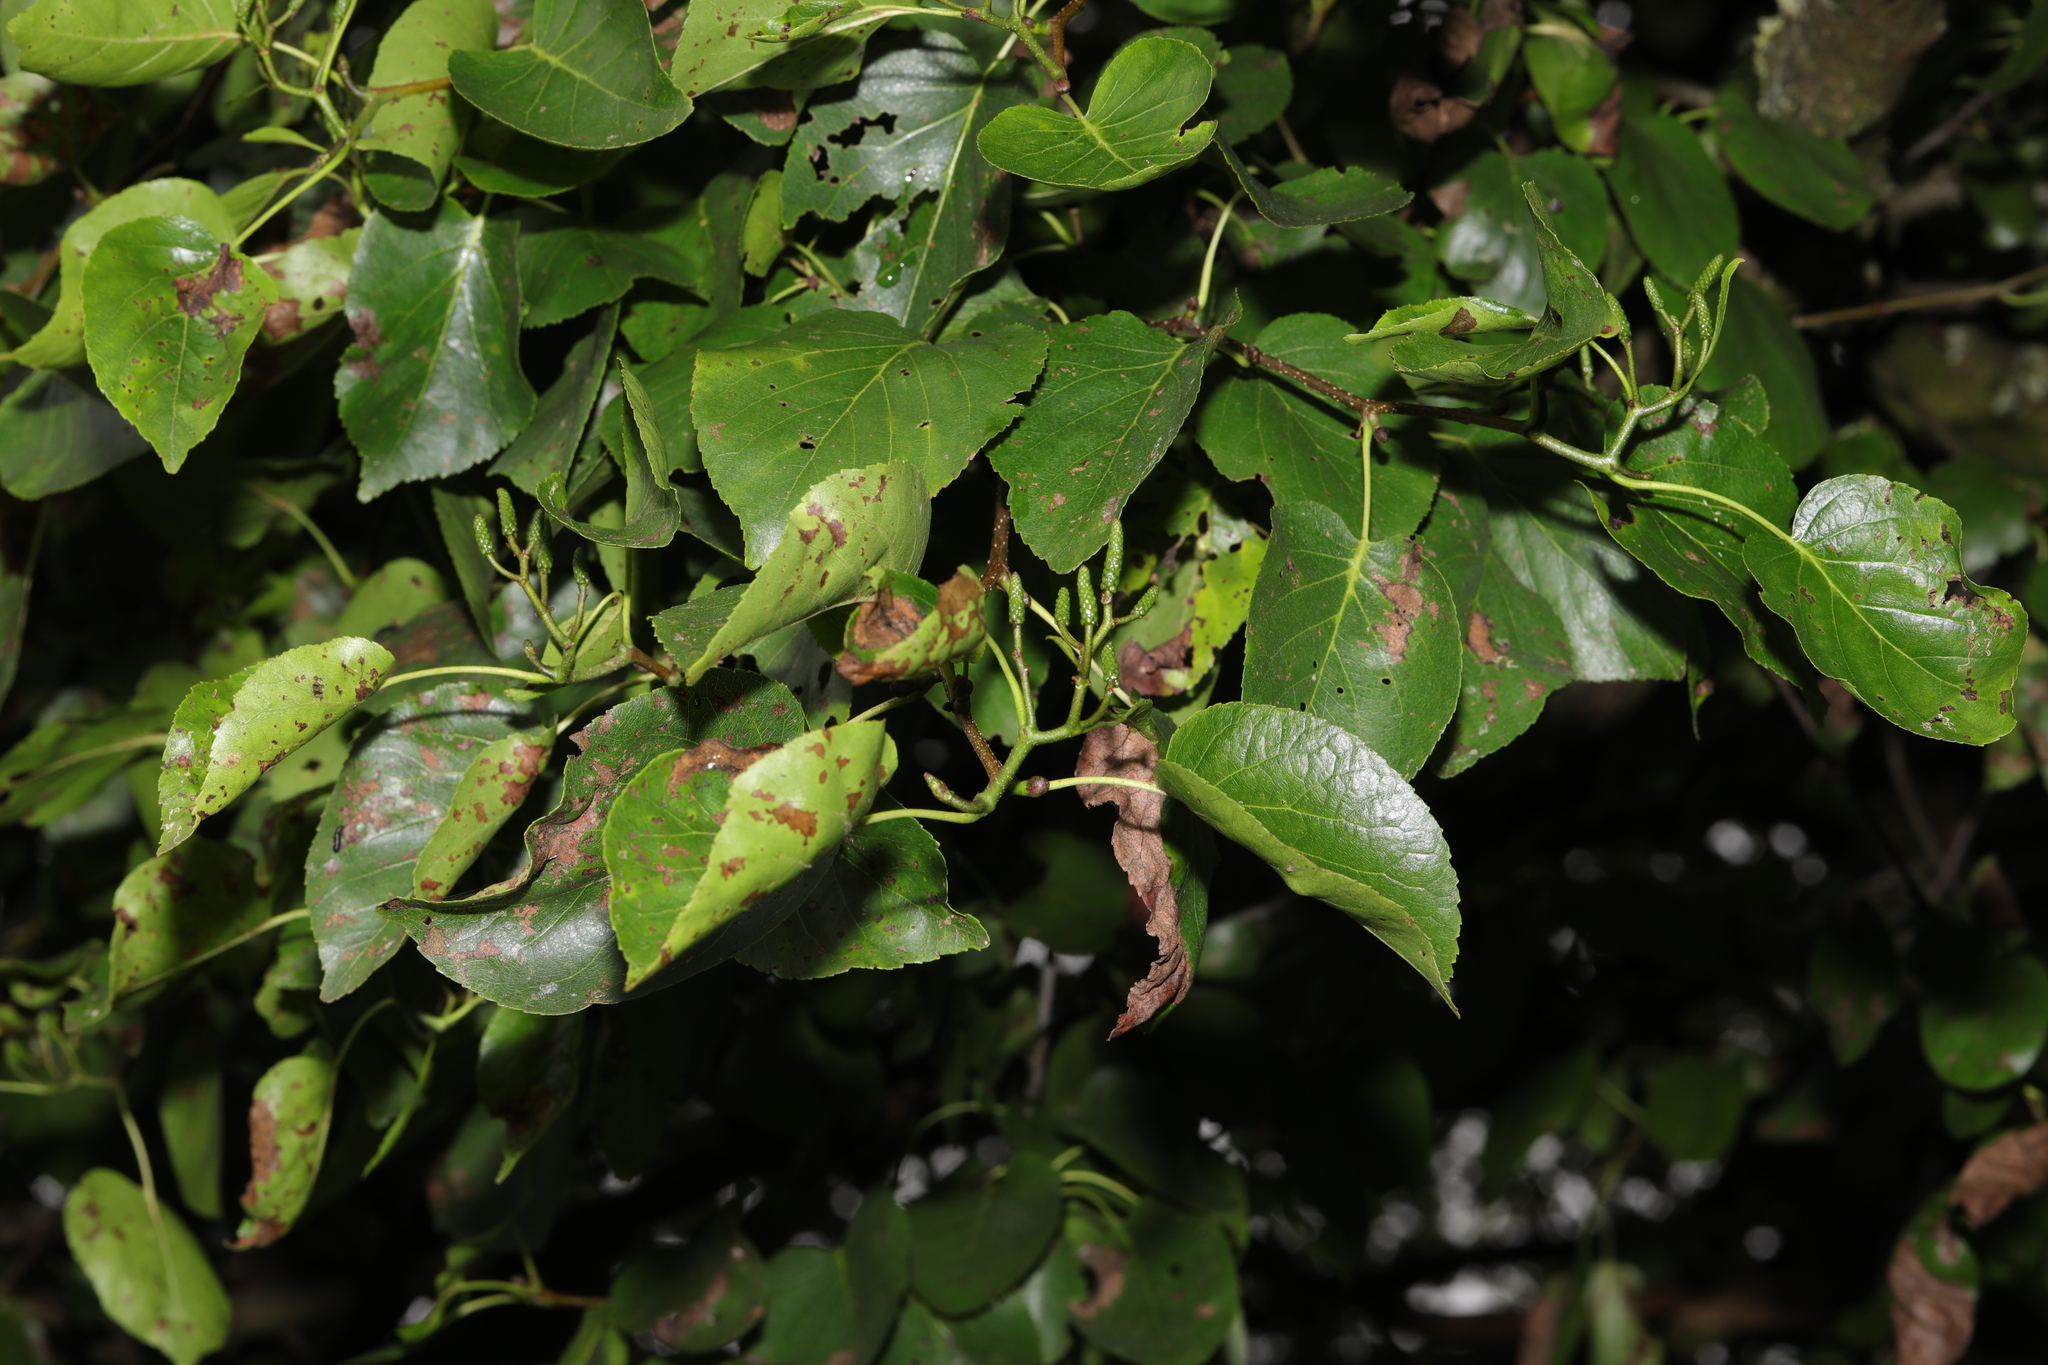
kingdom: Plantae
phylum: Tracheophyta
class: Magnoliopsida
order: Fagales
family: Betulaceae
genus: Alnus
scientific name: Alnus cordata
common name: Italian alder
